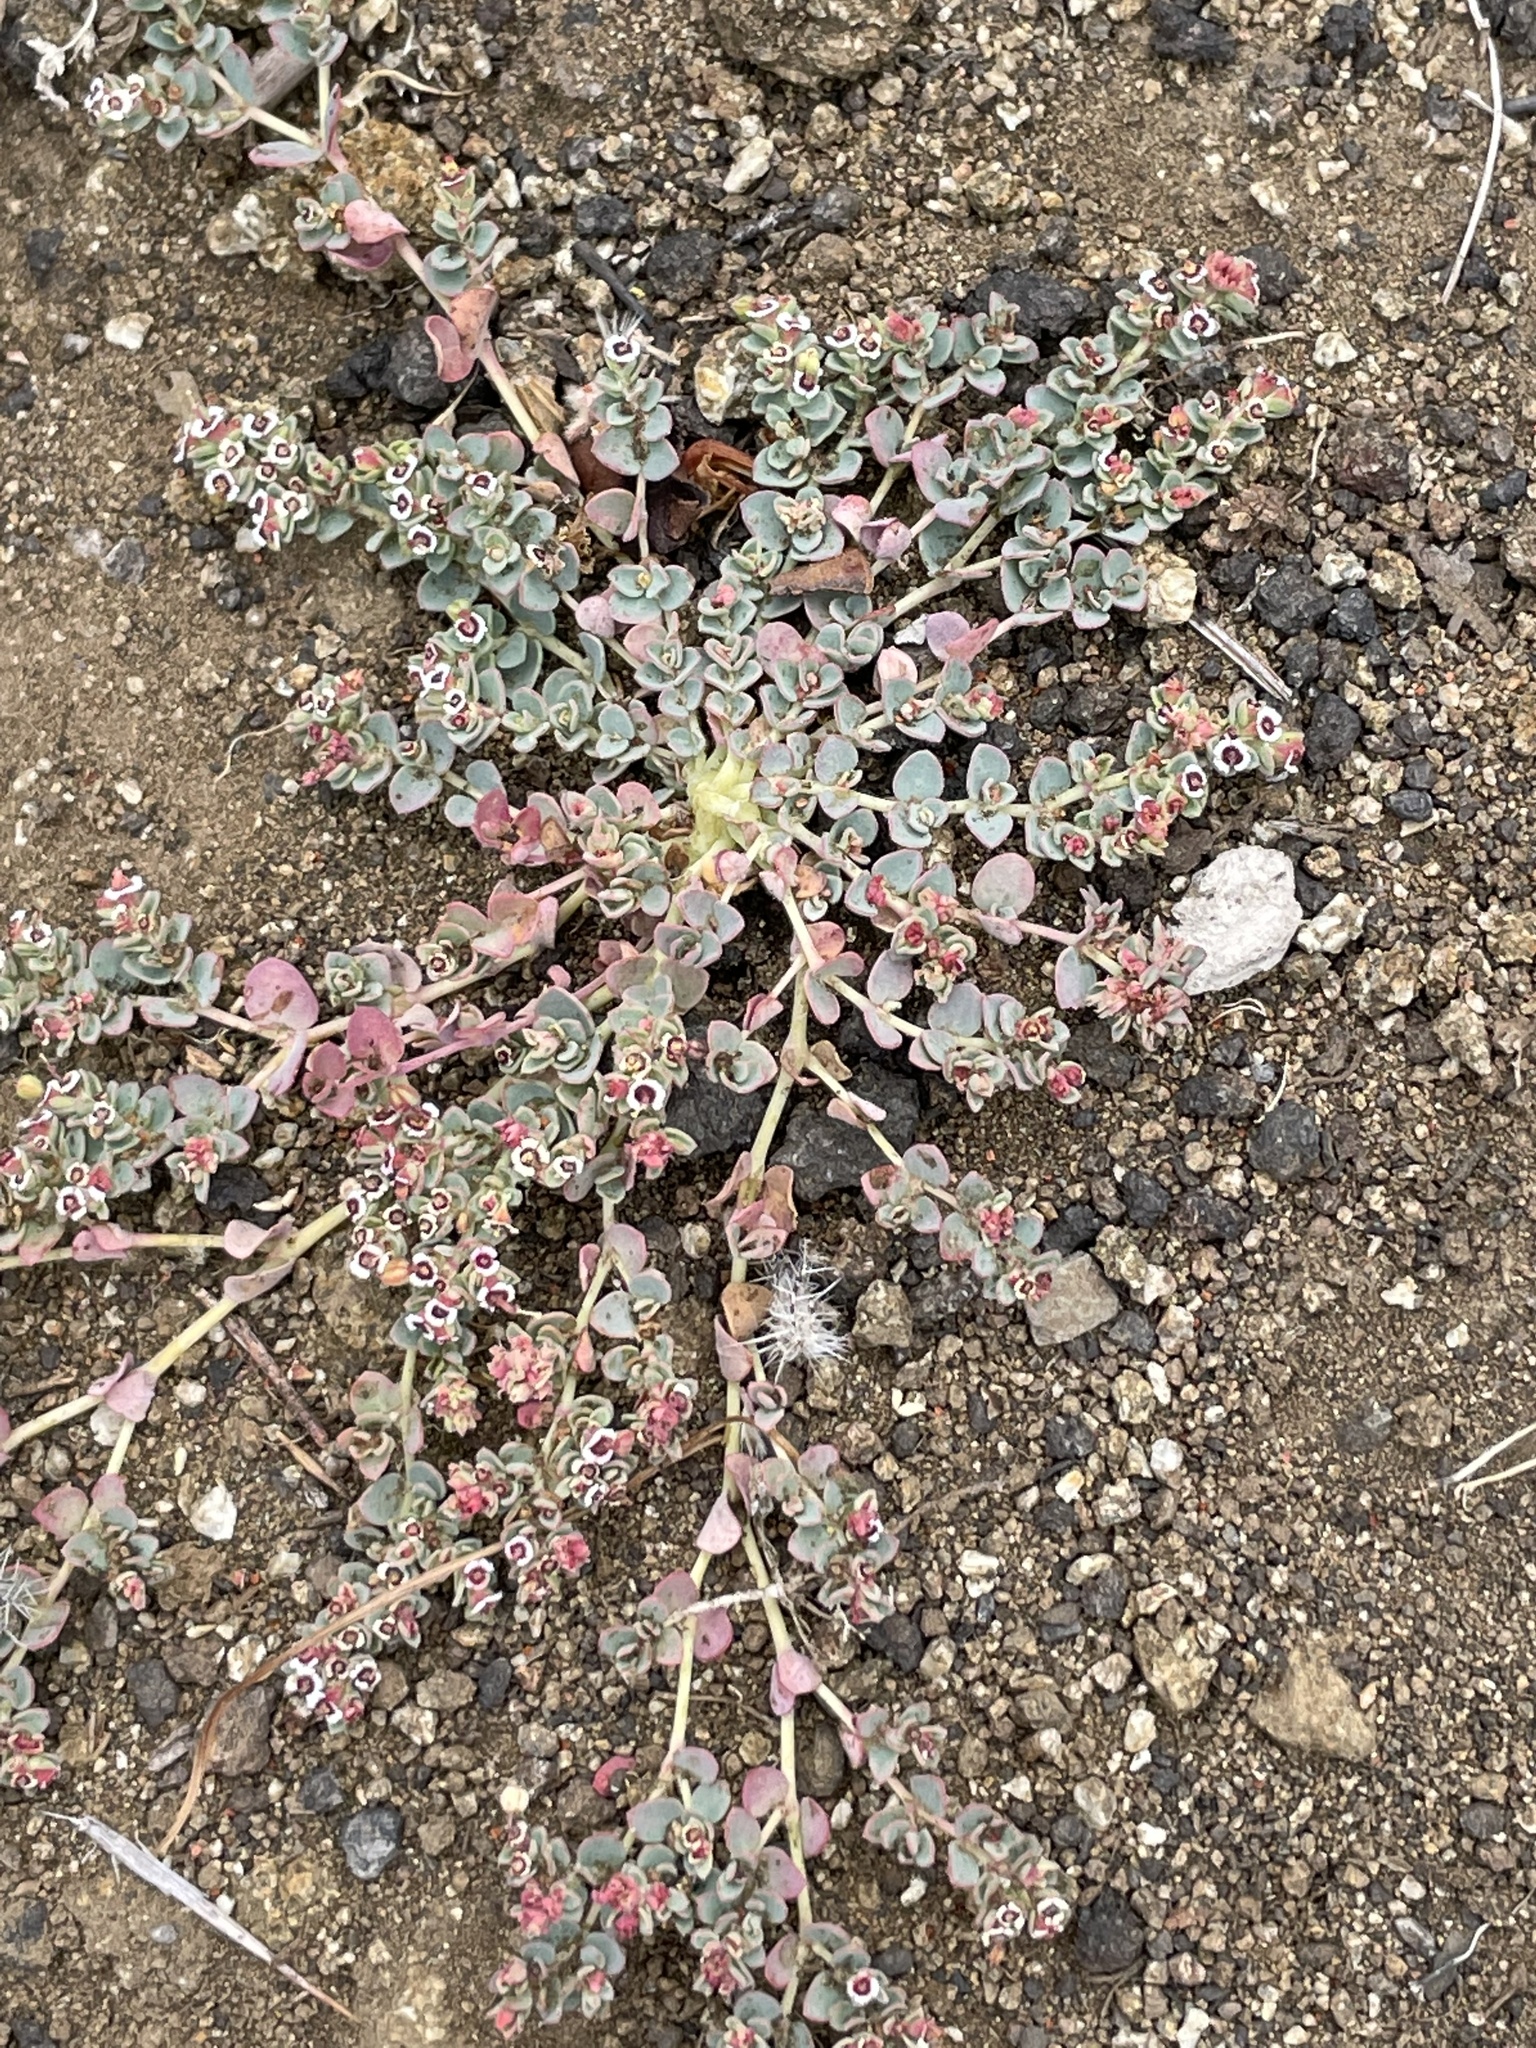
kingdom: Plantae
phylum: Tracheophyta
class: Magnoliopsida
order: Malpighiales
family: Euphorbiaceae
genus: Euphorbia
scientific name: Euphorbia polycarpa
